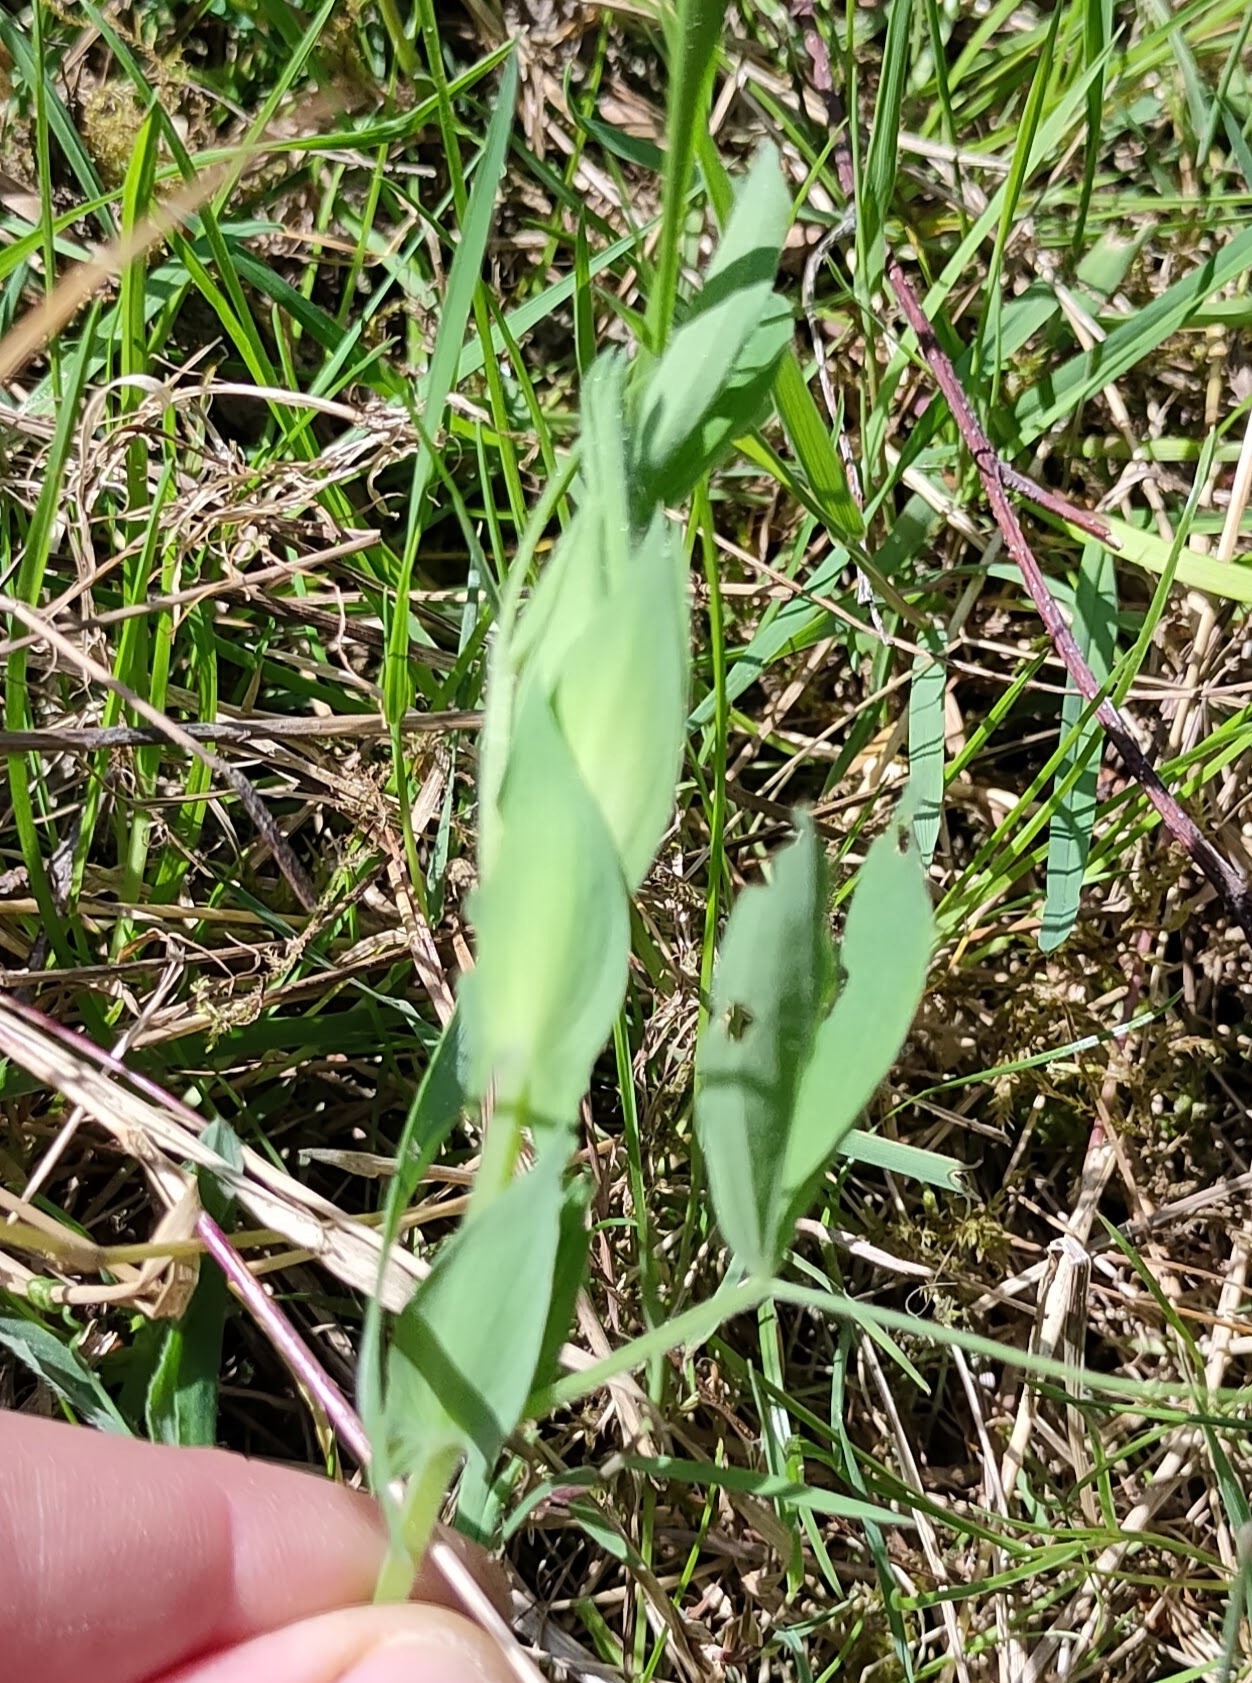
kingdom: Plantae
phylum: Tracheophyta
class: Magnoliopsida
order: Fabales
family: Fabaceae
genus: Lathyrus
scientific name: Lathyrus pratensis
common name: Meadow vetchling
